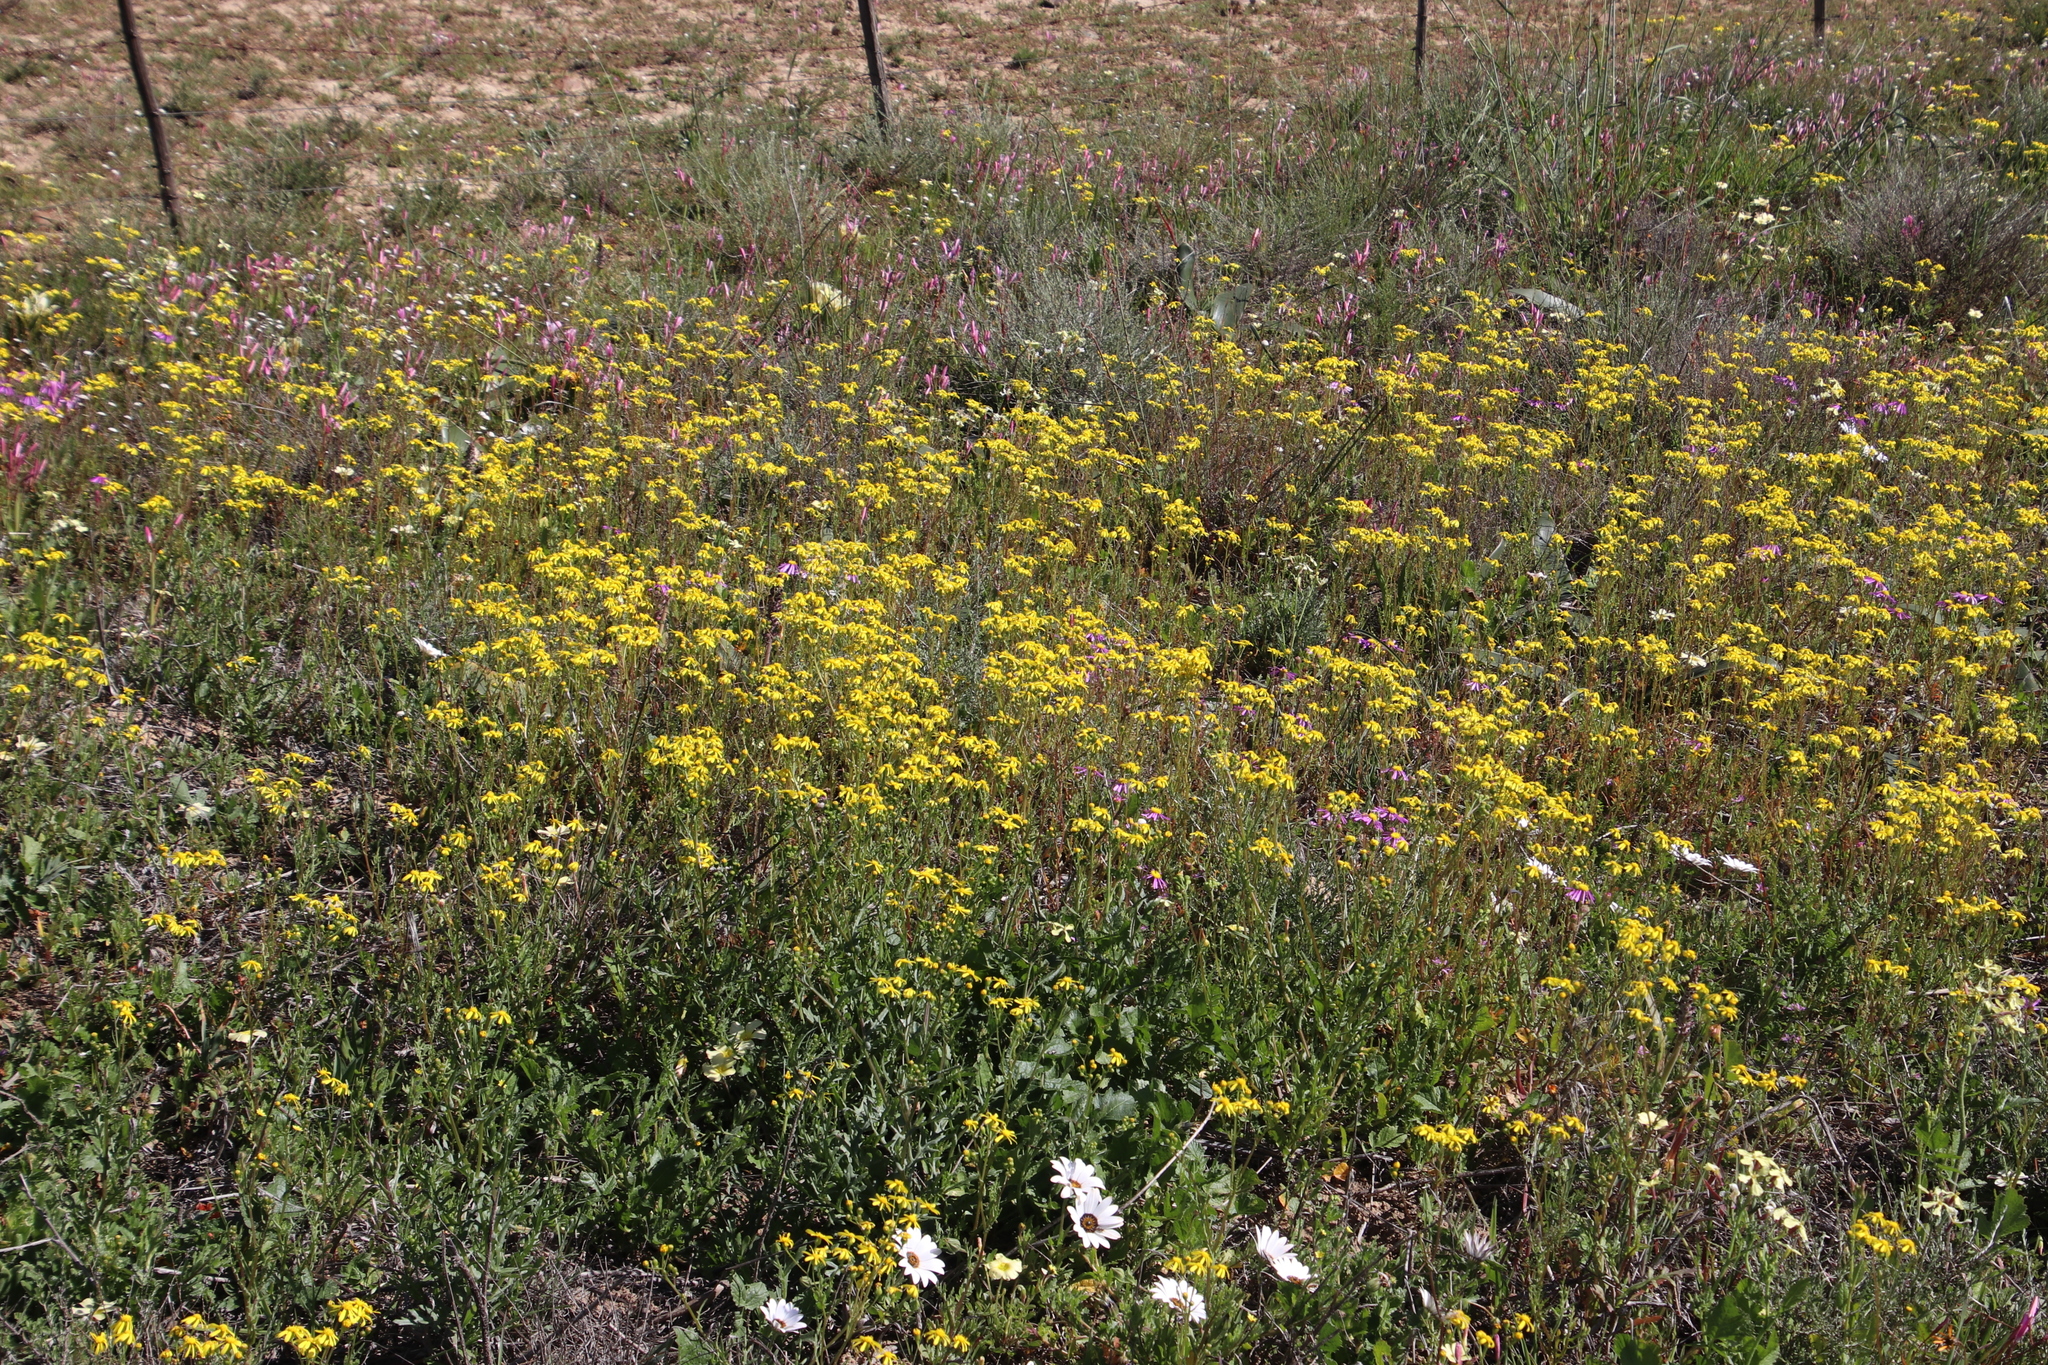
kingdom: Plantae
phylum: Tracheophyta
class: Magnoliopsida
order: Asterales
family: Asteraceae
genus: Senecio
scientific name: Senecio abruptus
